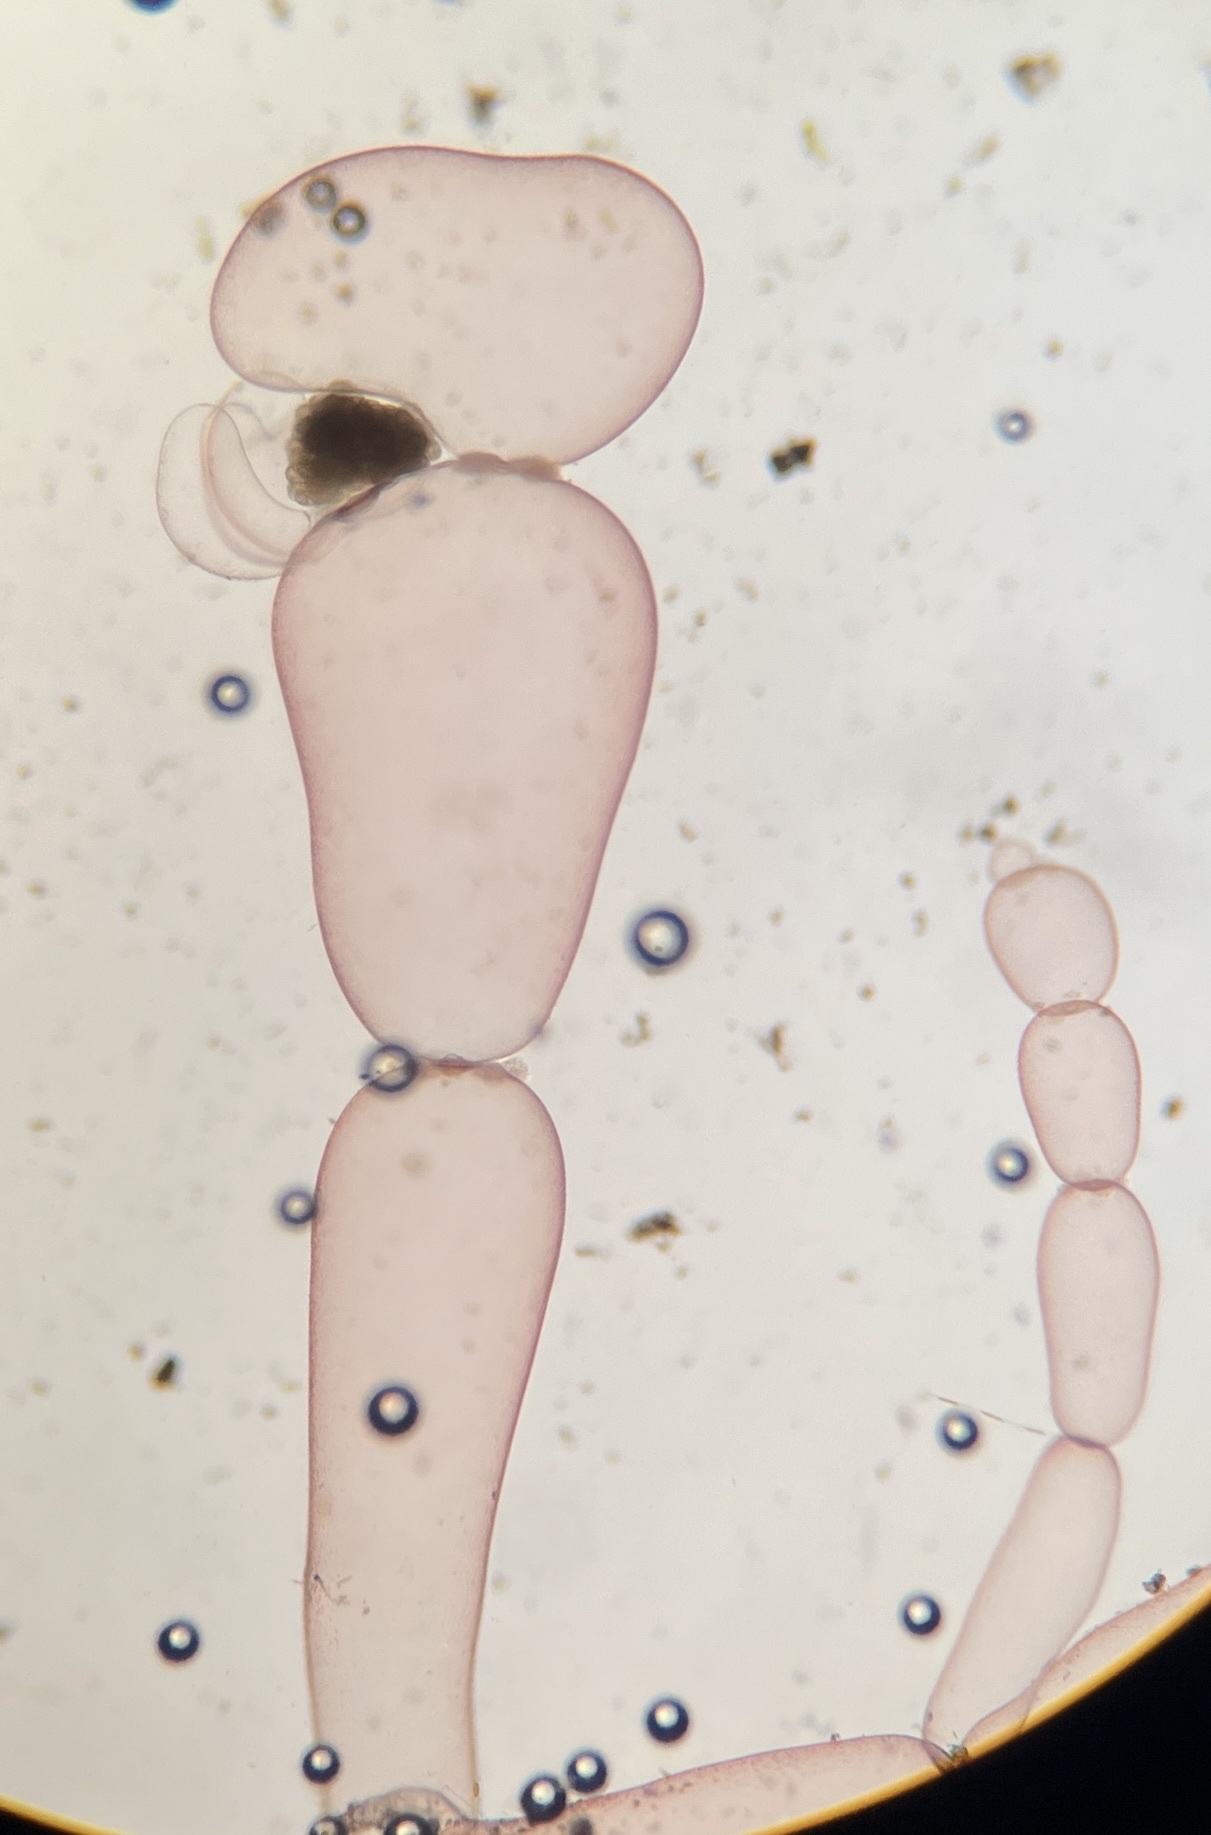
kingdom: Plantae
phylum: Rhodophyta
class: Florideophyceae
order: Ceramiales
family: Wrangeliaceae
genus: Griffithsia
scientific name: Griffithsia schousboei
